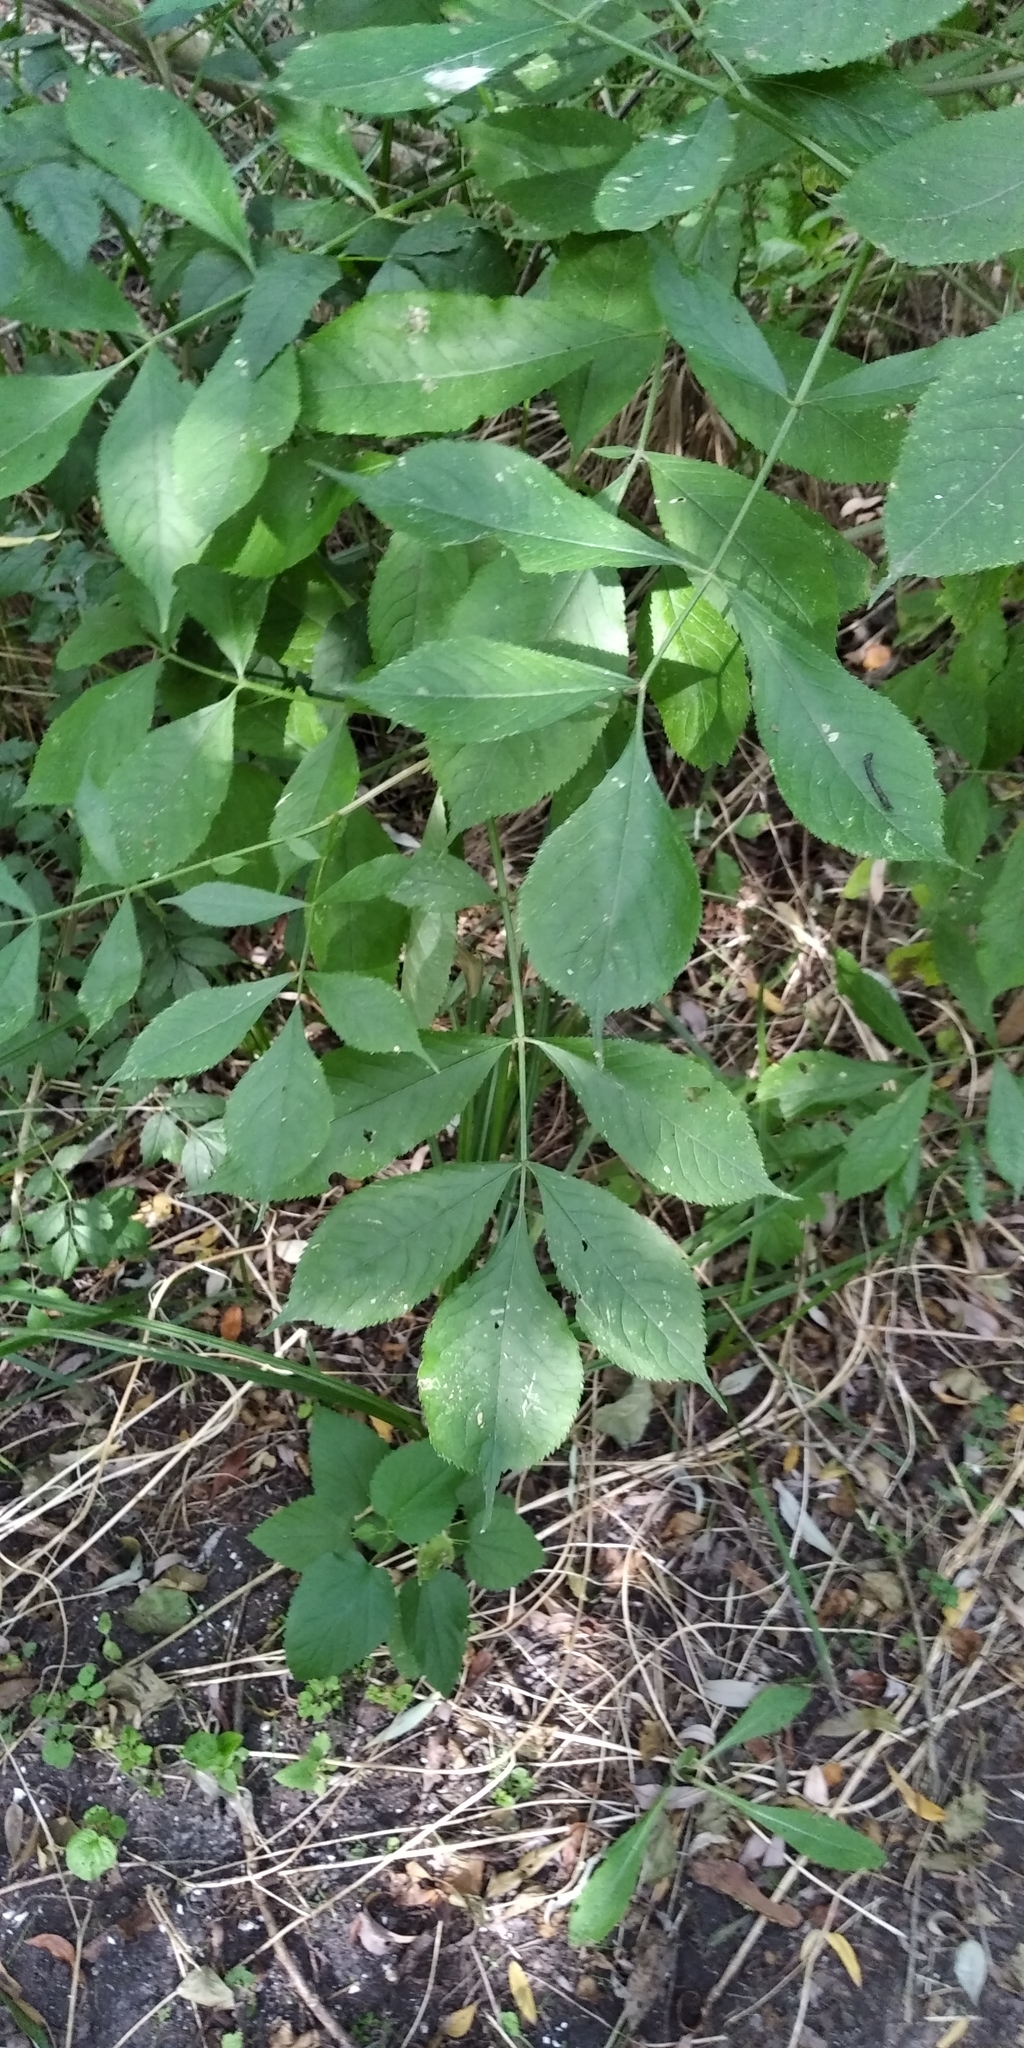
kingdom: Plantae
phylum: Tracheophyta
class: Magnoliopsida
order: Dipsacales
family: Viburnaceae
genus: Sambucus
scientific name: Sambucus nigra
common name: Elder
